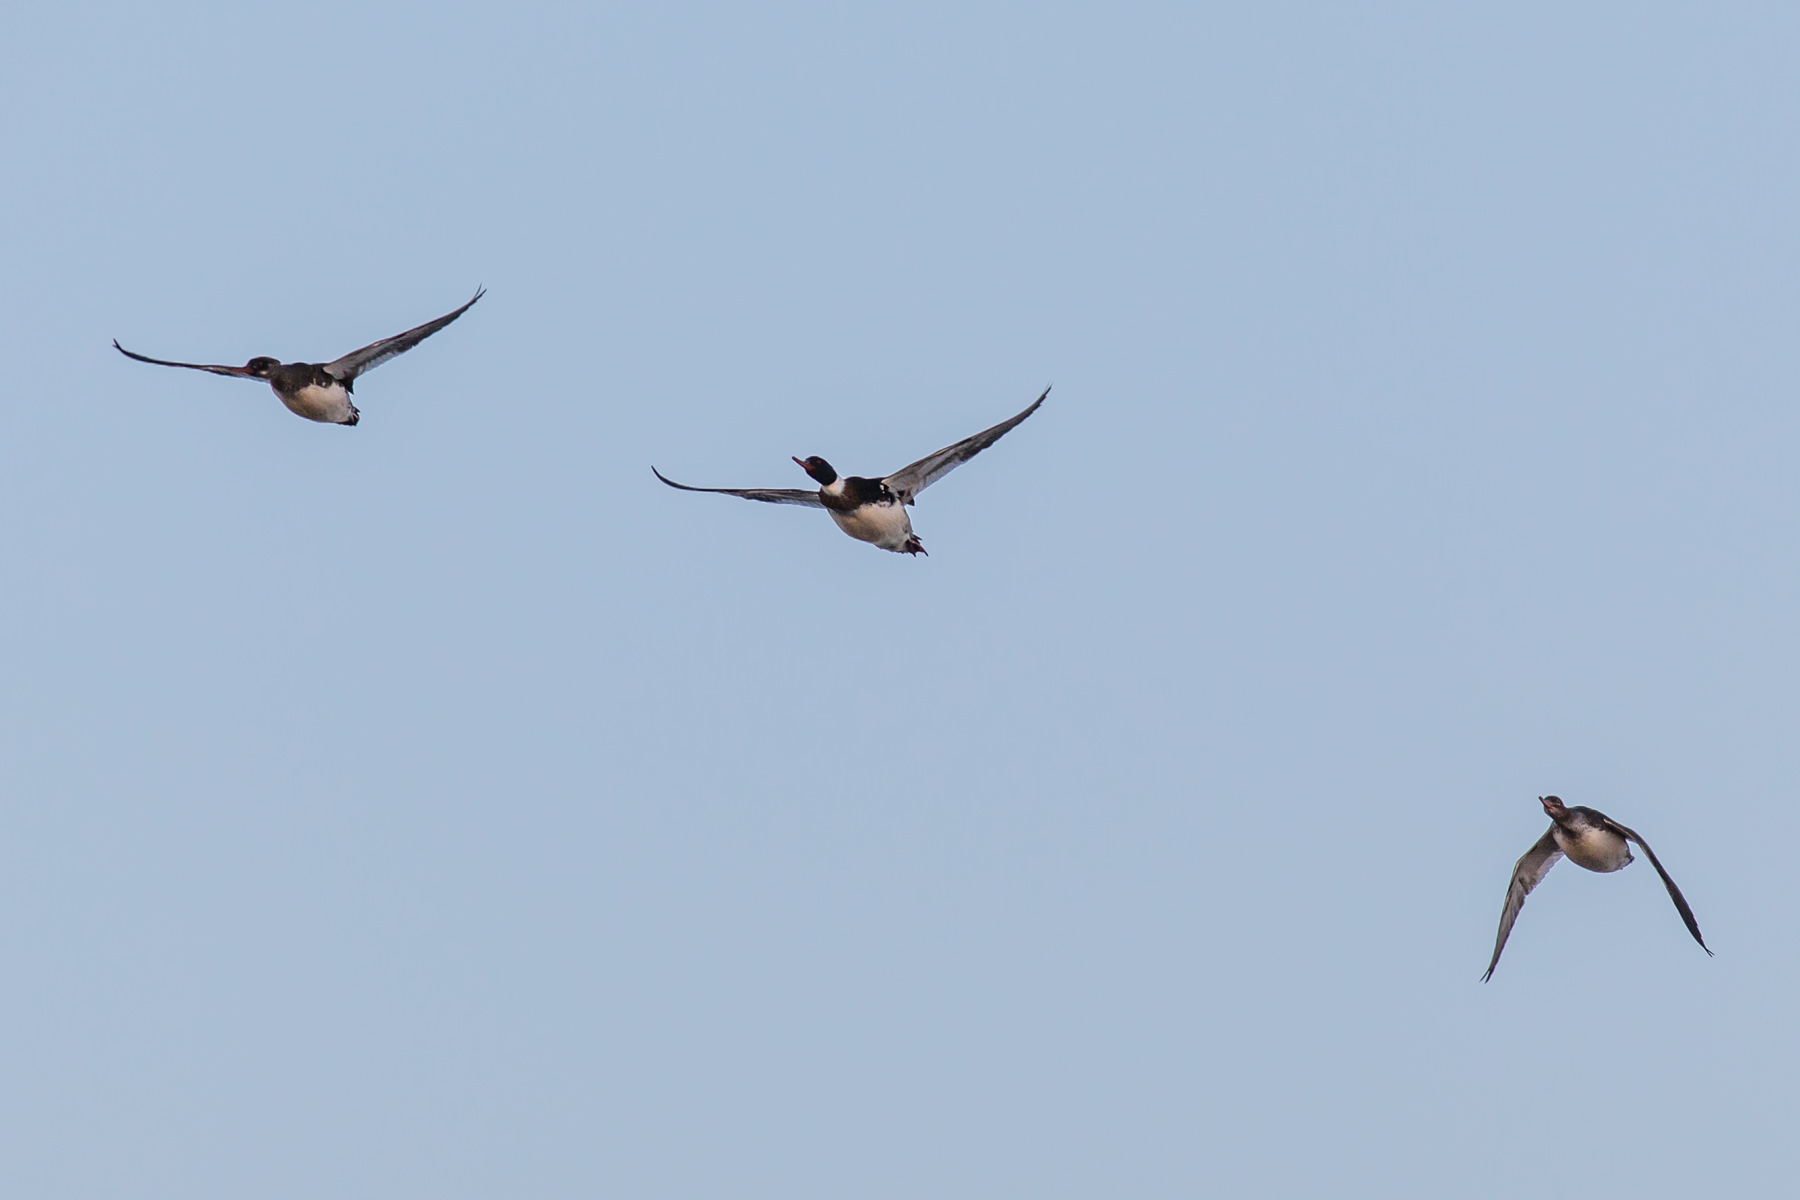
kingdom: Animalia
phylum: Chordata
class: Aves
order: Anseriformes
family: Anatidae
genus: Mergus
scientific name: Mergus serrator
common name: Red-breasted merganser
